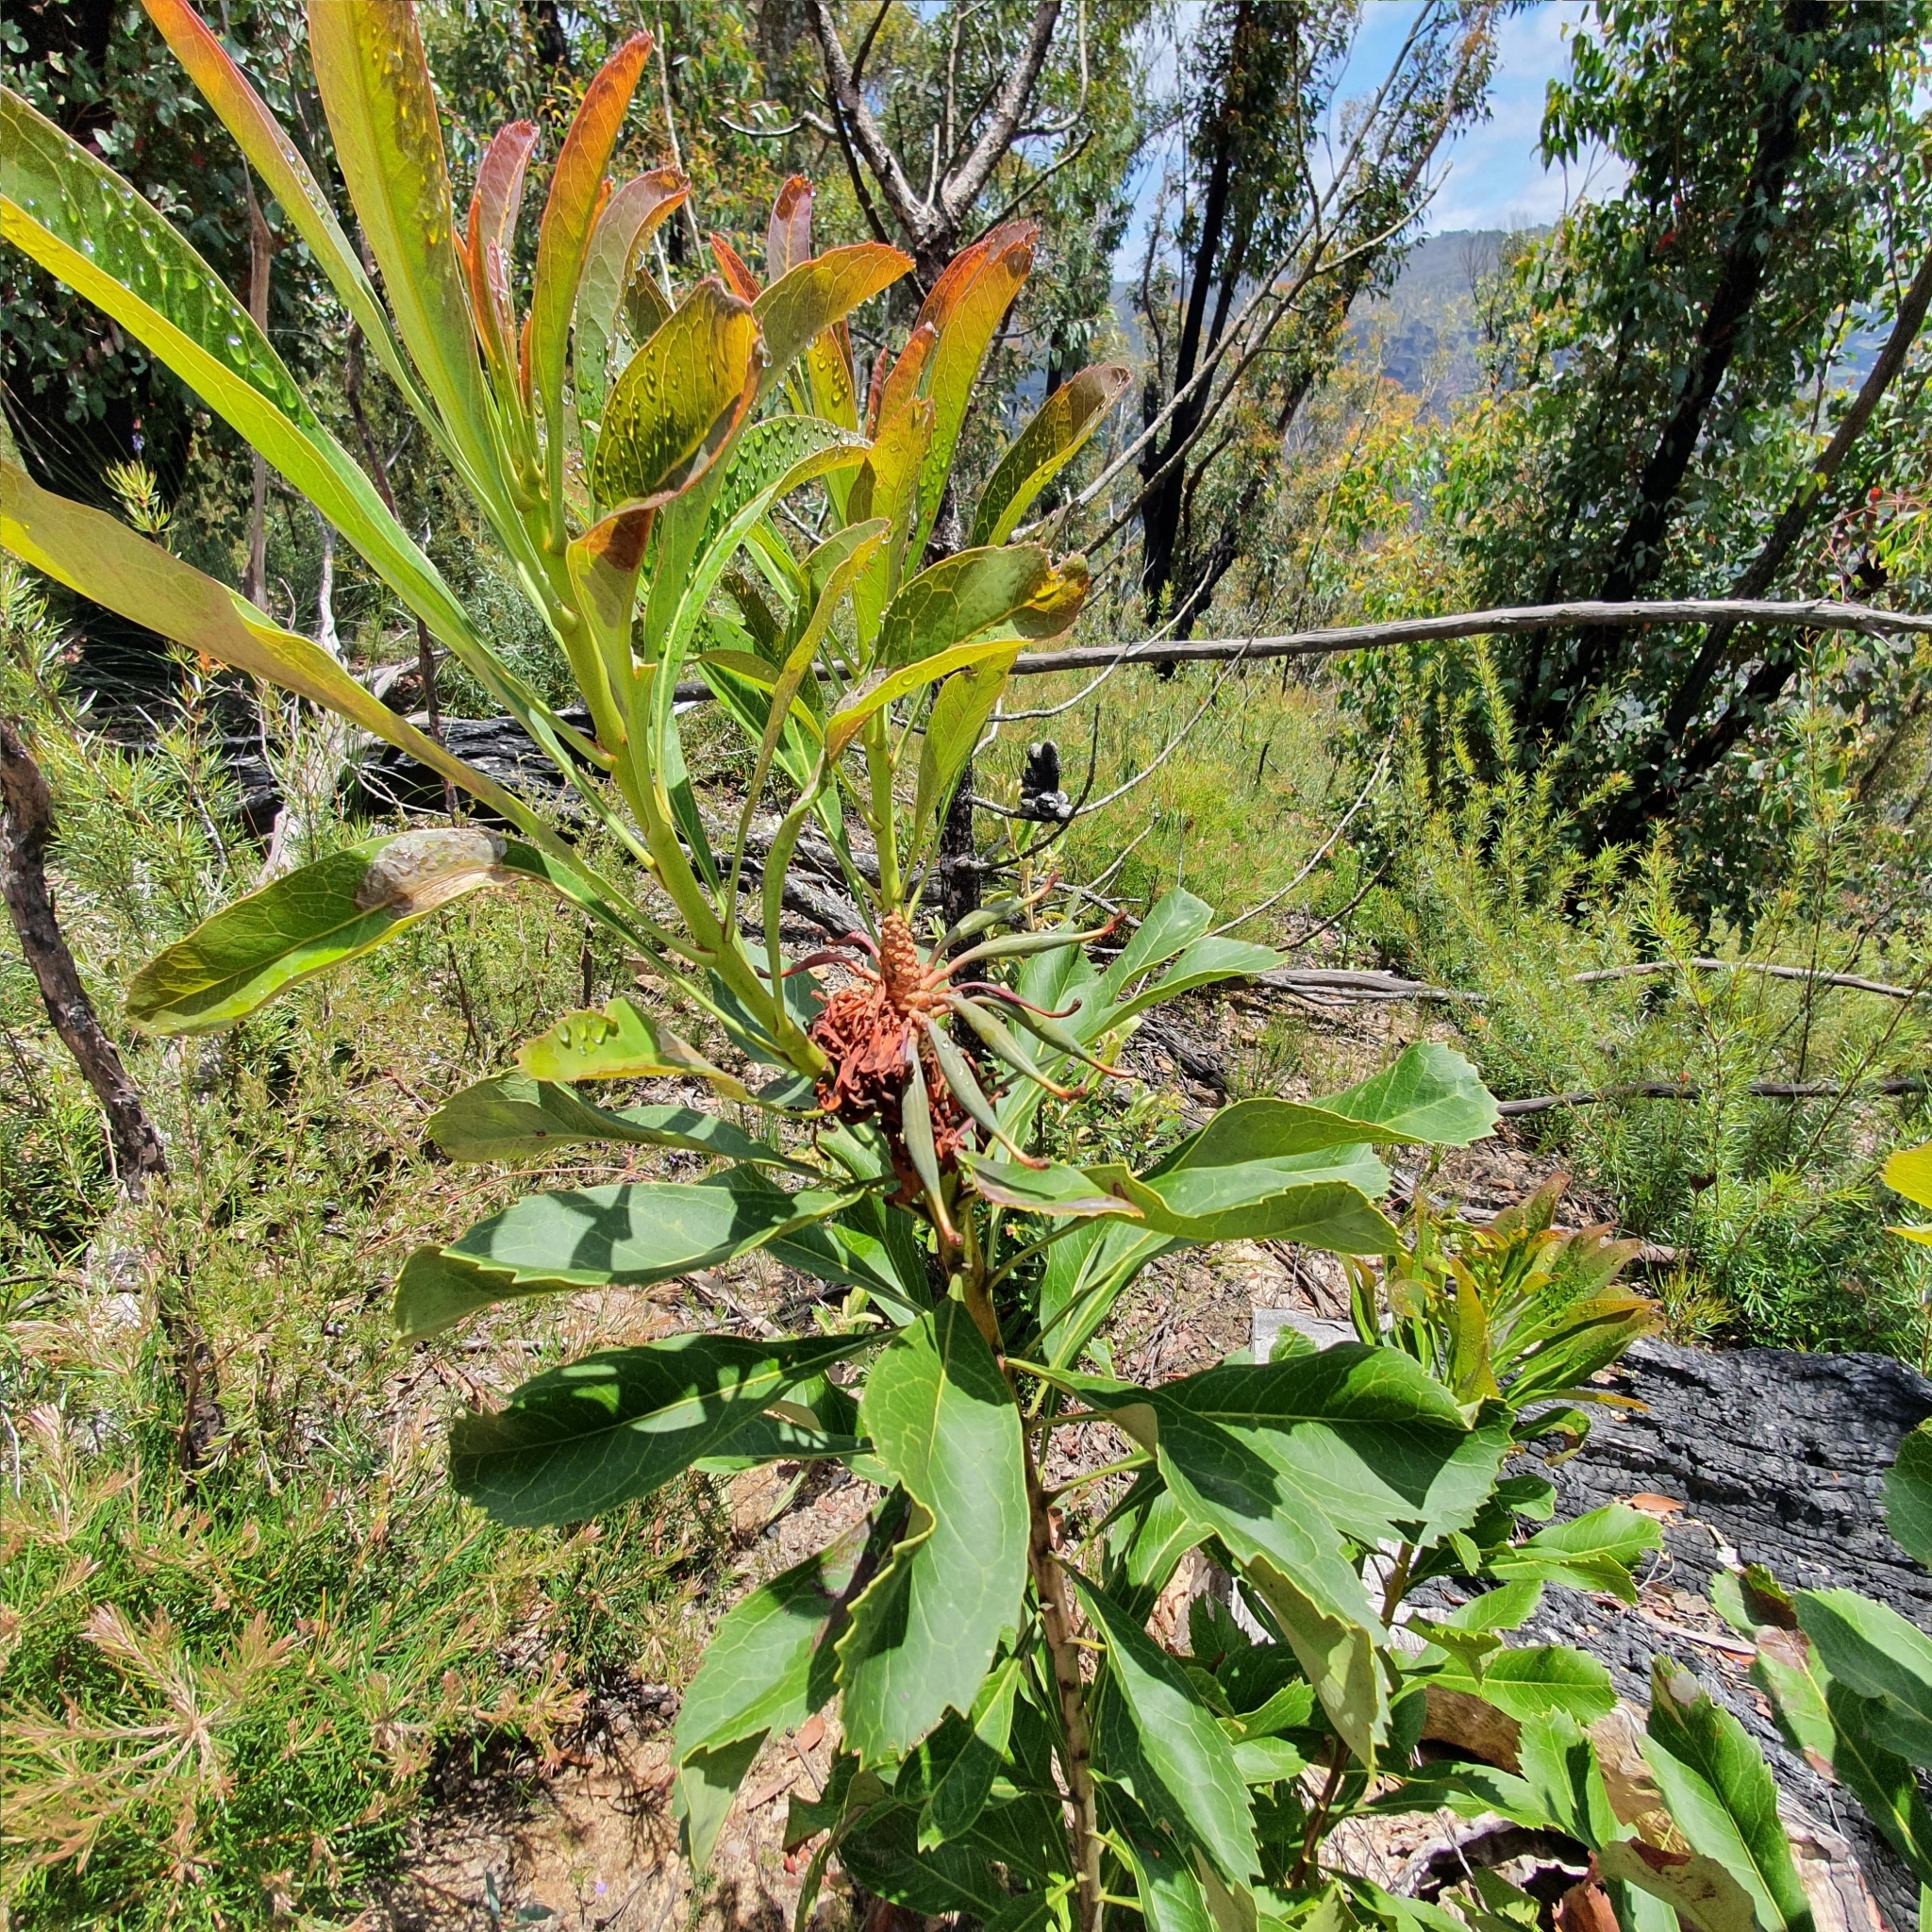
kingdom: Plantae
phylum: Tracheophyta
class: Magnoliopsida
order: Proteales
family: Proteaceae
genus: Telopea
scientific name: Telopea speciosissima
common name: New south wales waratah
